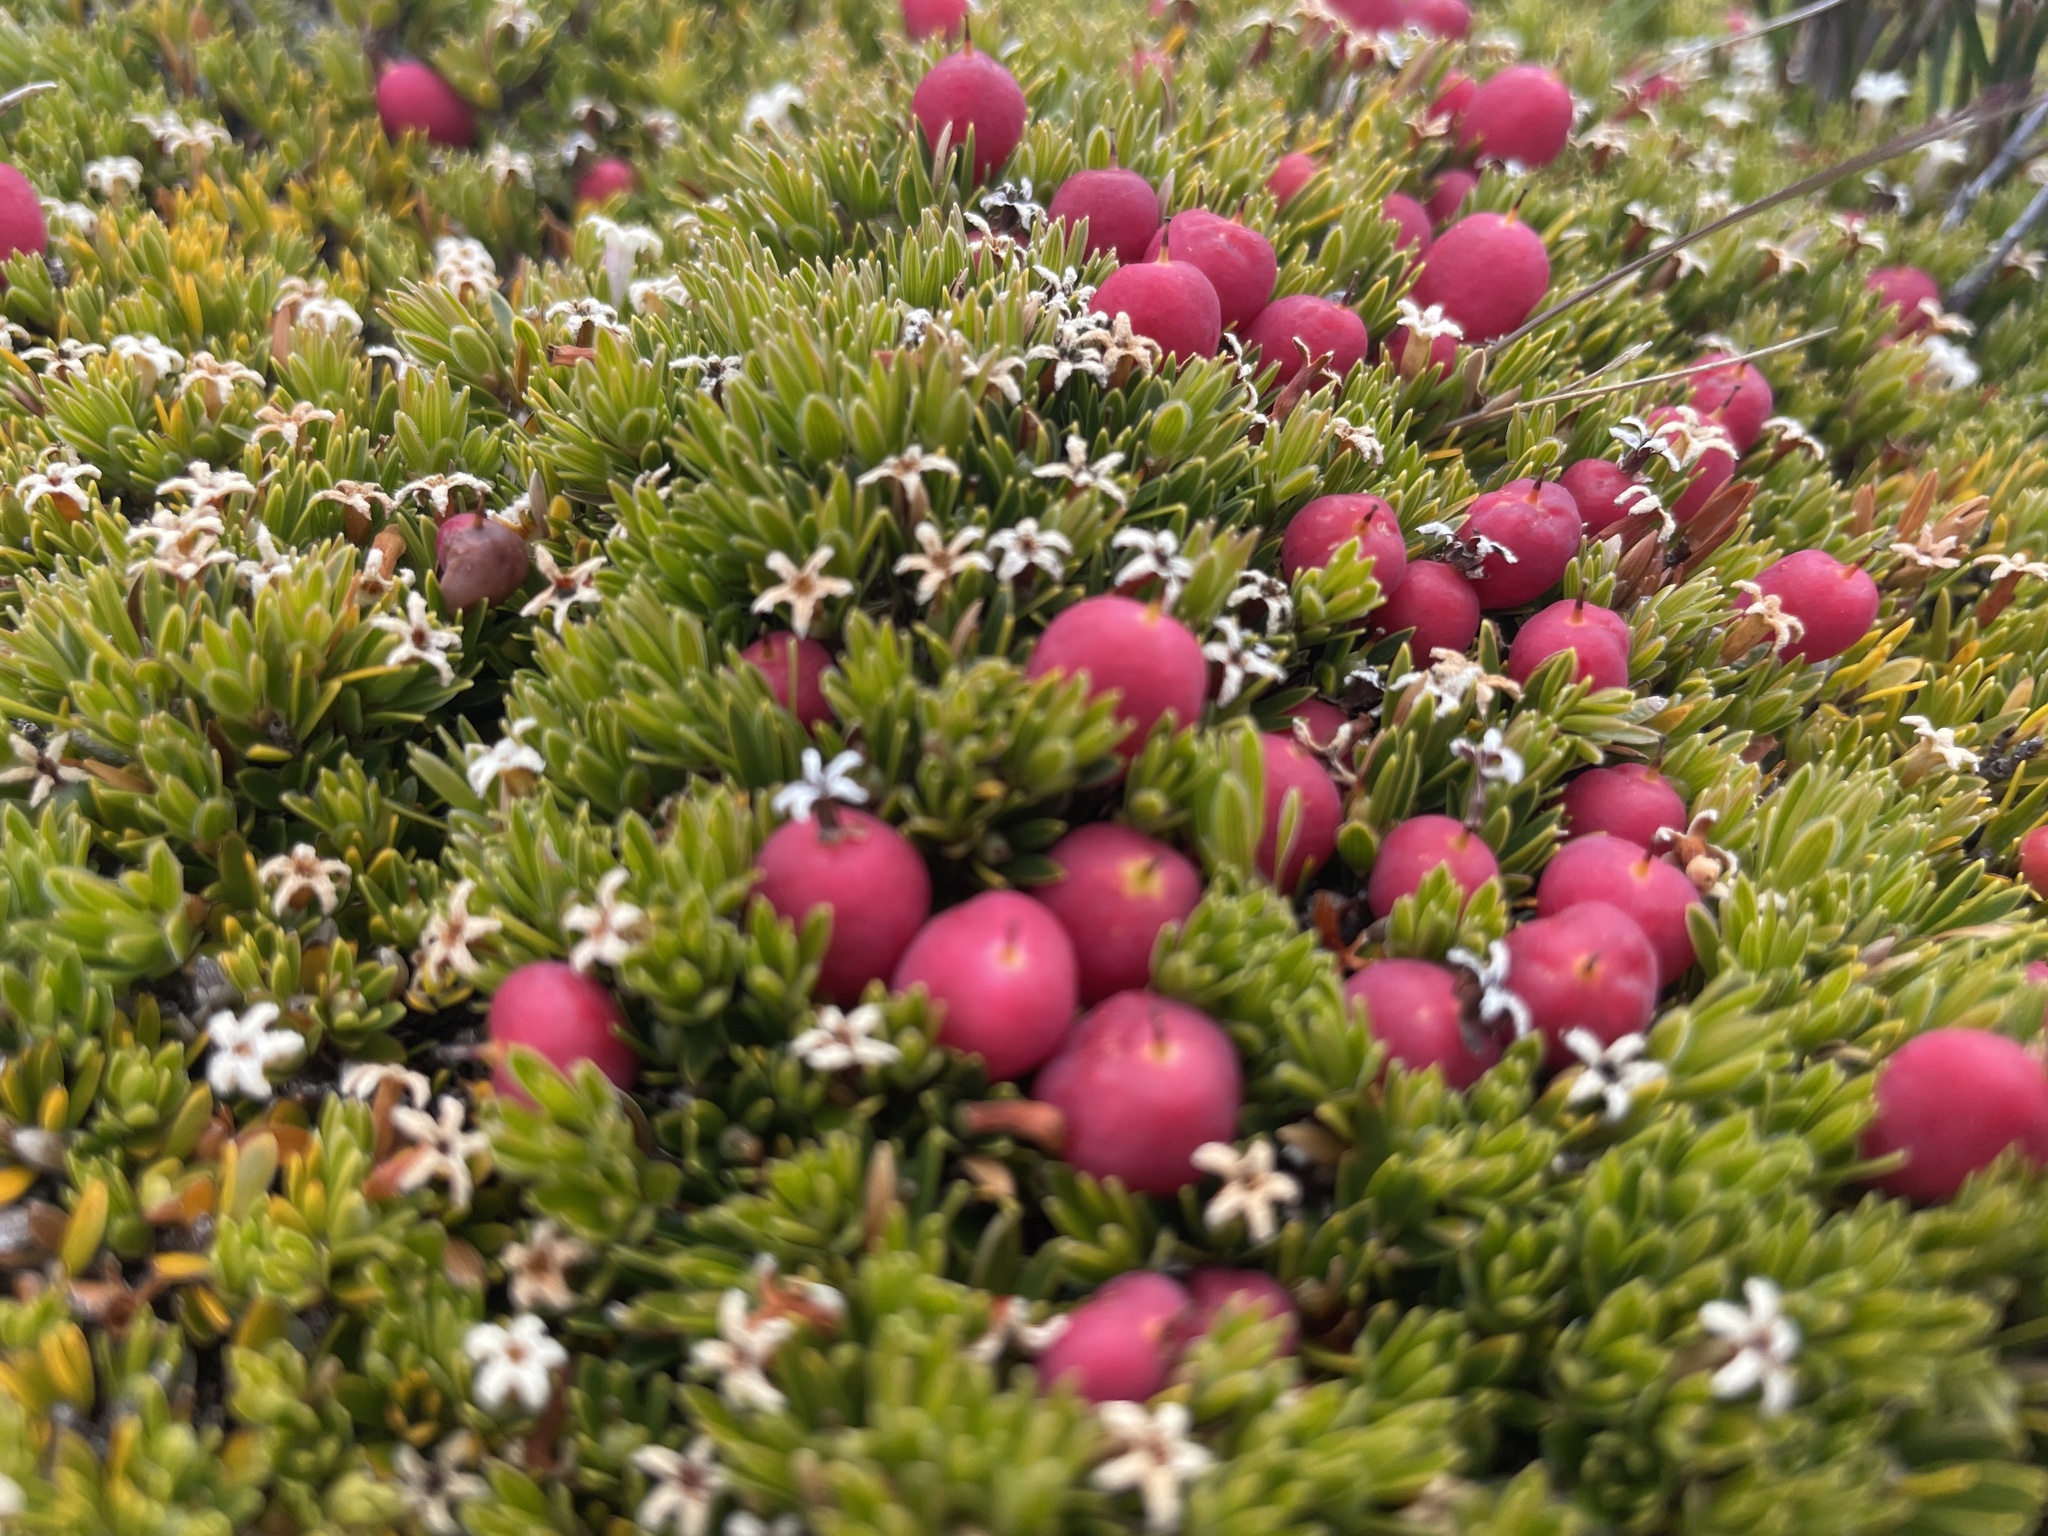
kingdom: Plantae
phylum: Tracheophyta
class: Magnoliopsida
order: Ericales
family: Ericaceae
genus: Pentachondra
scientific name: Pentachondra pumila
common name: Carpet-heath
